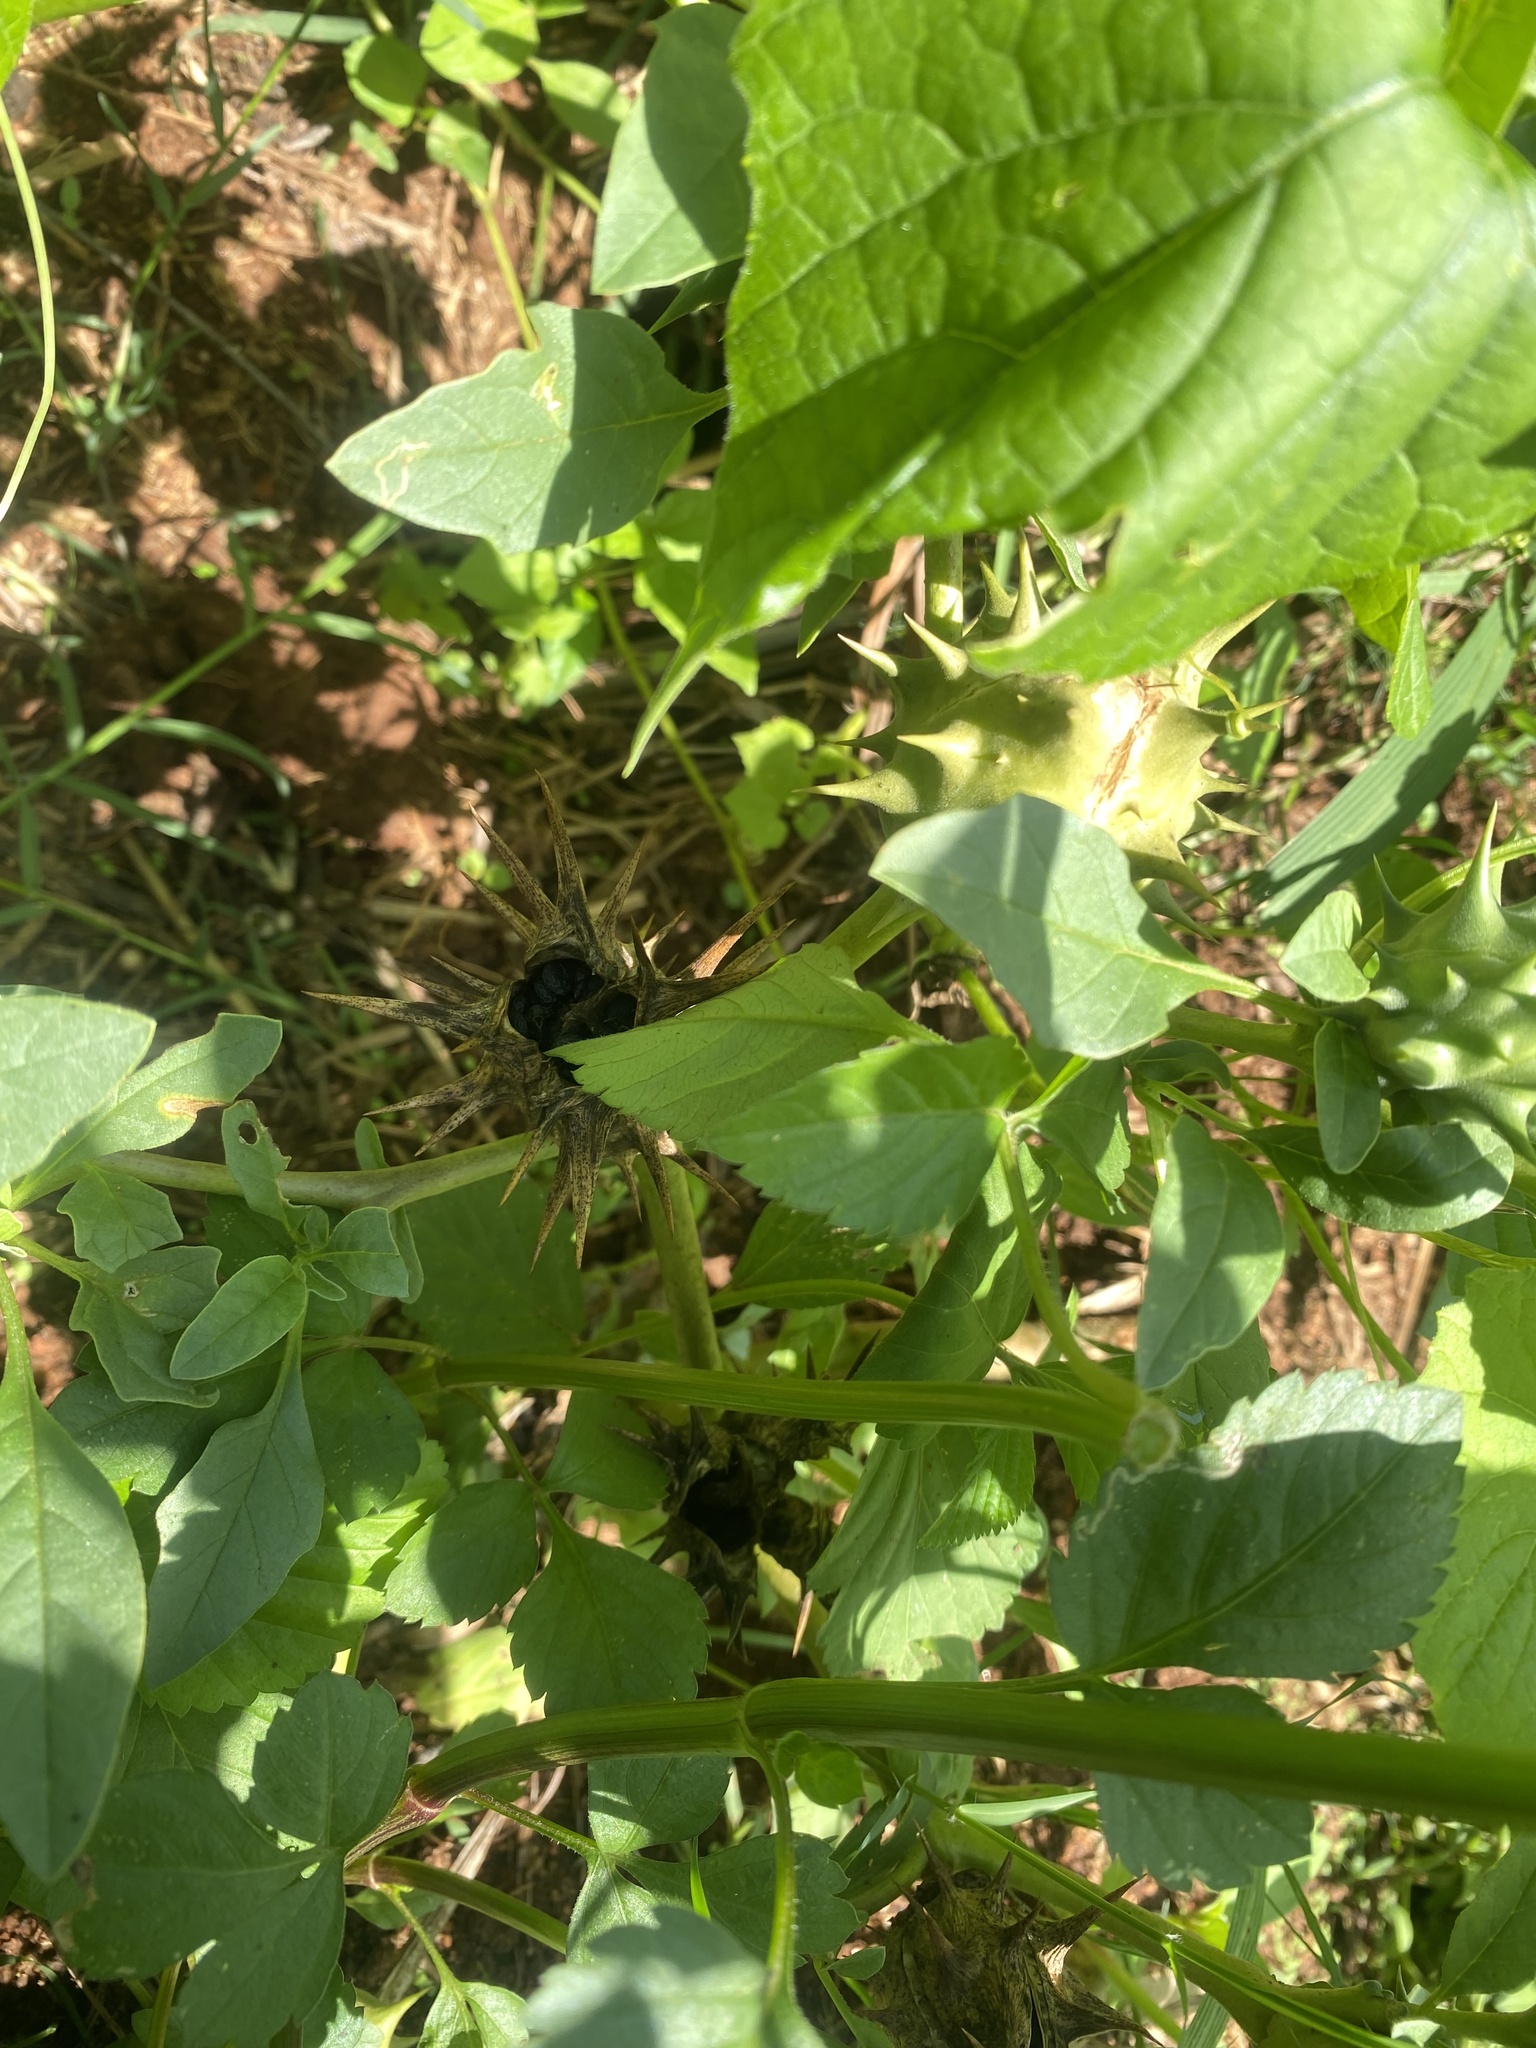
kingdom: Plantae
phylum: Tracheophyta
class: Magnoliopsida
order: Solanales
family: Solanaceae
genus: Datura
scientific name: Datura ferox
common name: Angel's-trumpets
